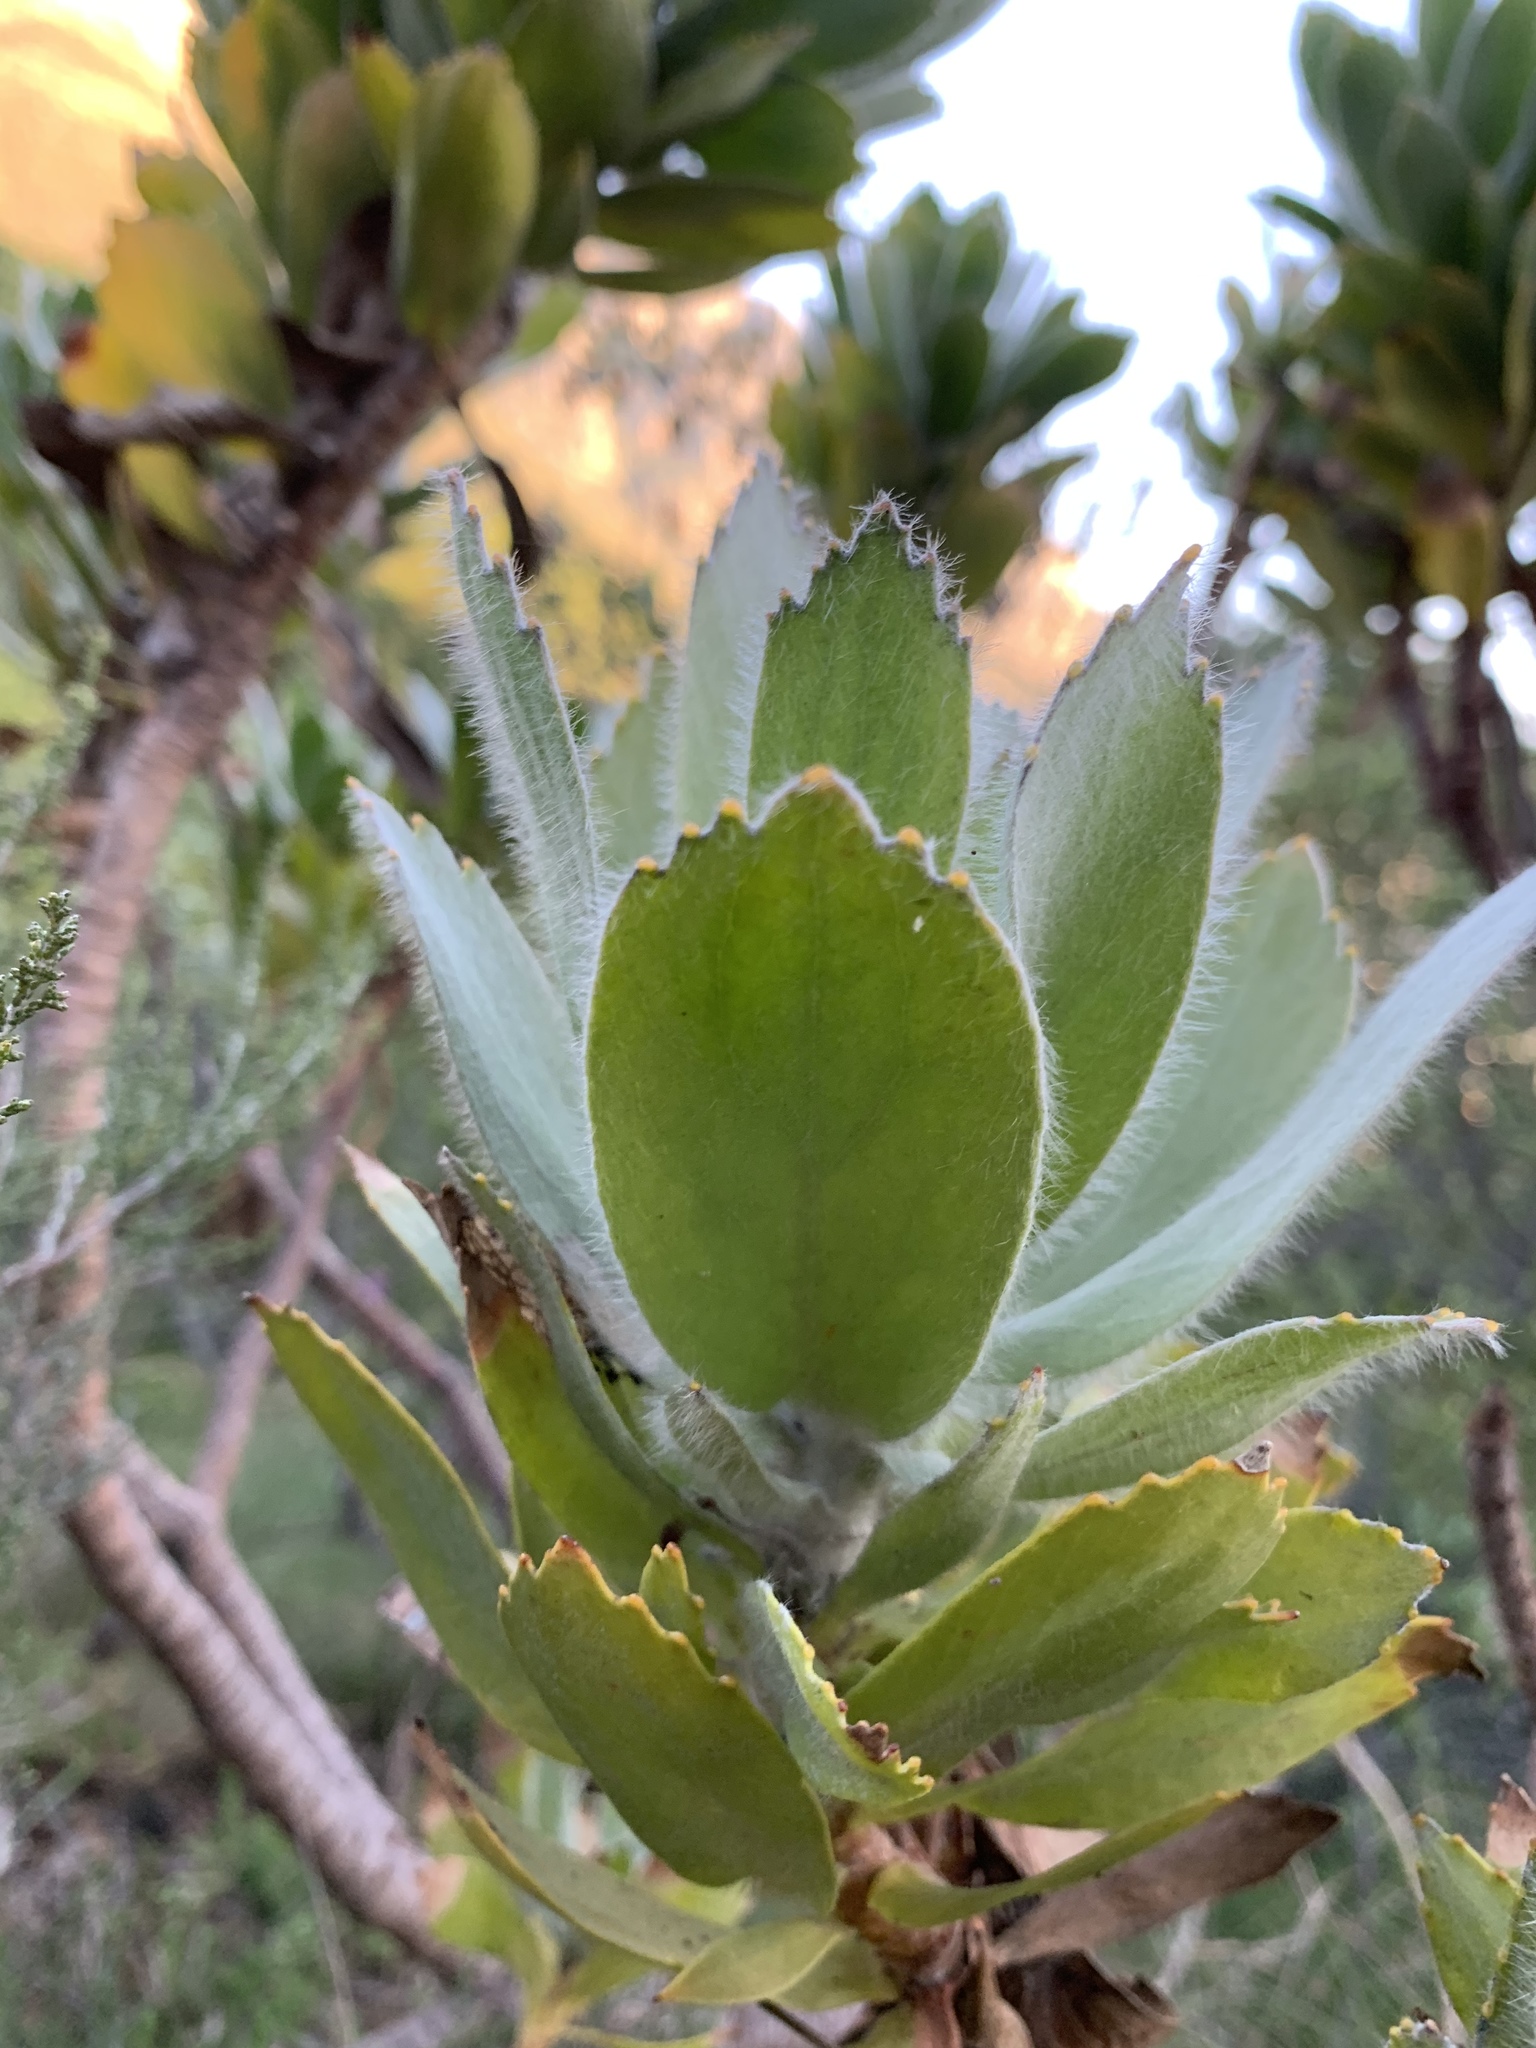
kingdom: Plantae
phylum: Tracheophyta
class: Magnoliopsida
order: Proteales
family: Proteaceae
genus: Leucospermum
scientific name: Leucospermum conocarpodendron
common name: Tree pincushion
